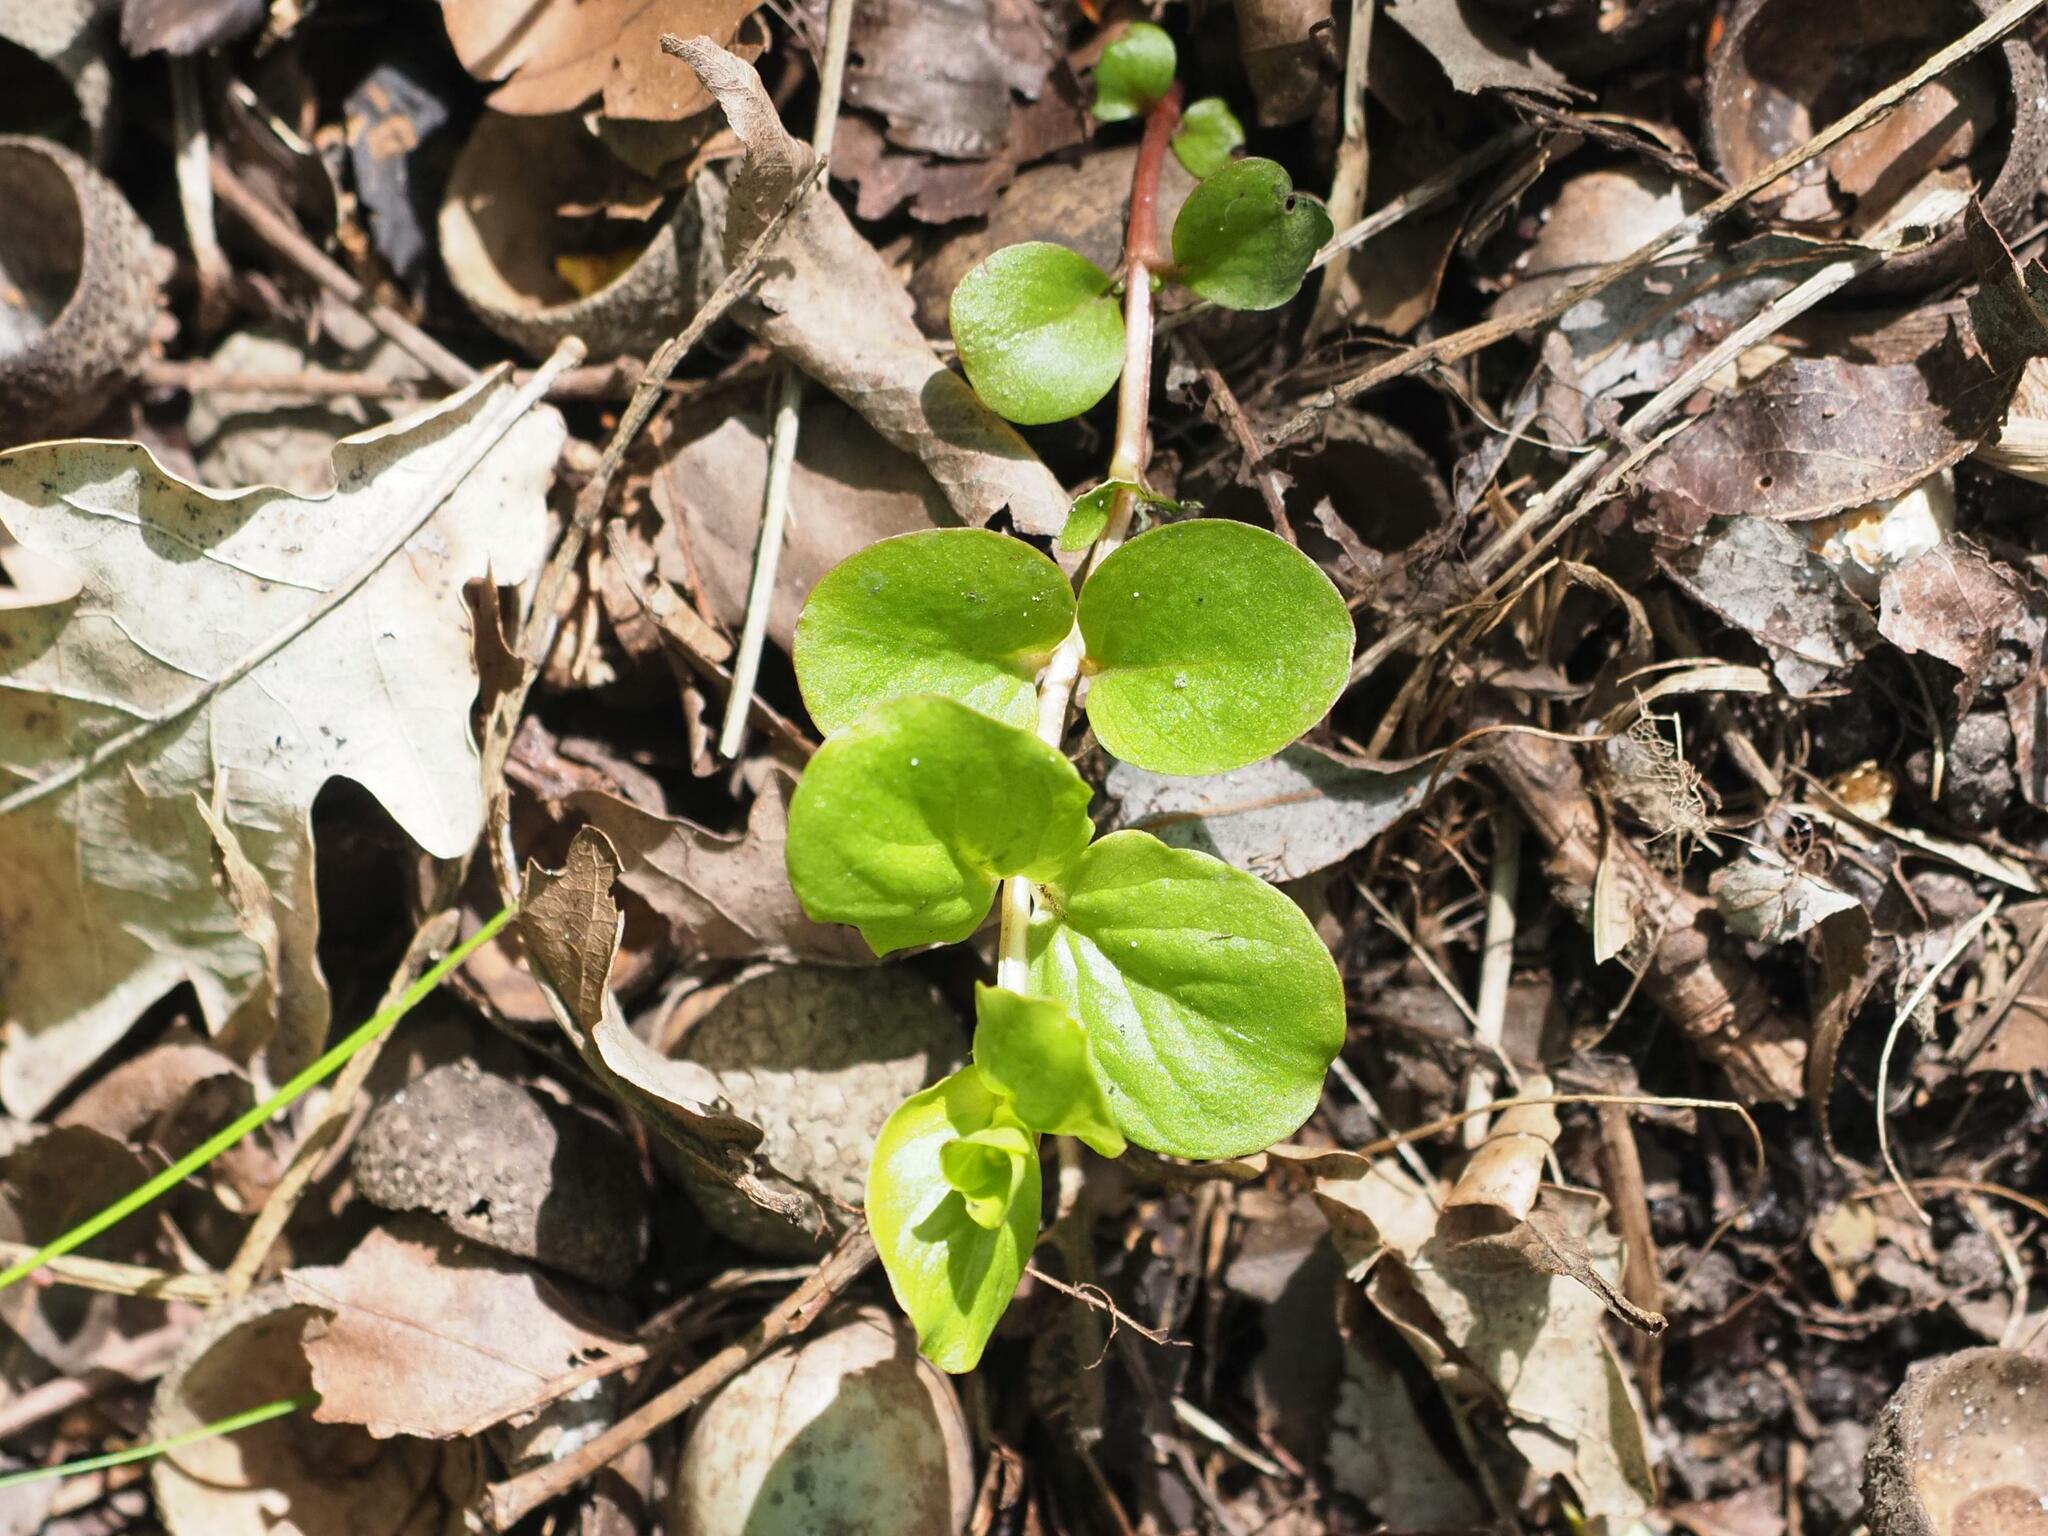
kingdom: Plantae
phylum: Tracheophyta
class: Magnoliopsida
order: Ericales
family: Primulaceae
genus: Lysimachia
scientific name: Lysimachia nummularia
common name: Moneywort
